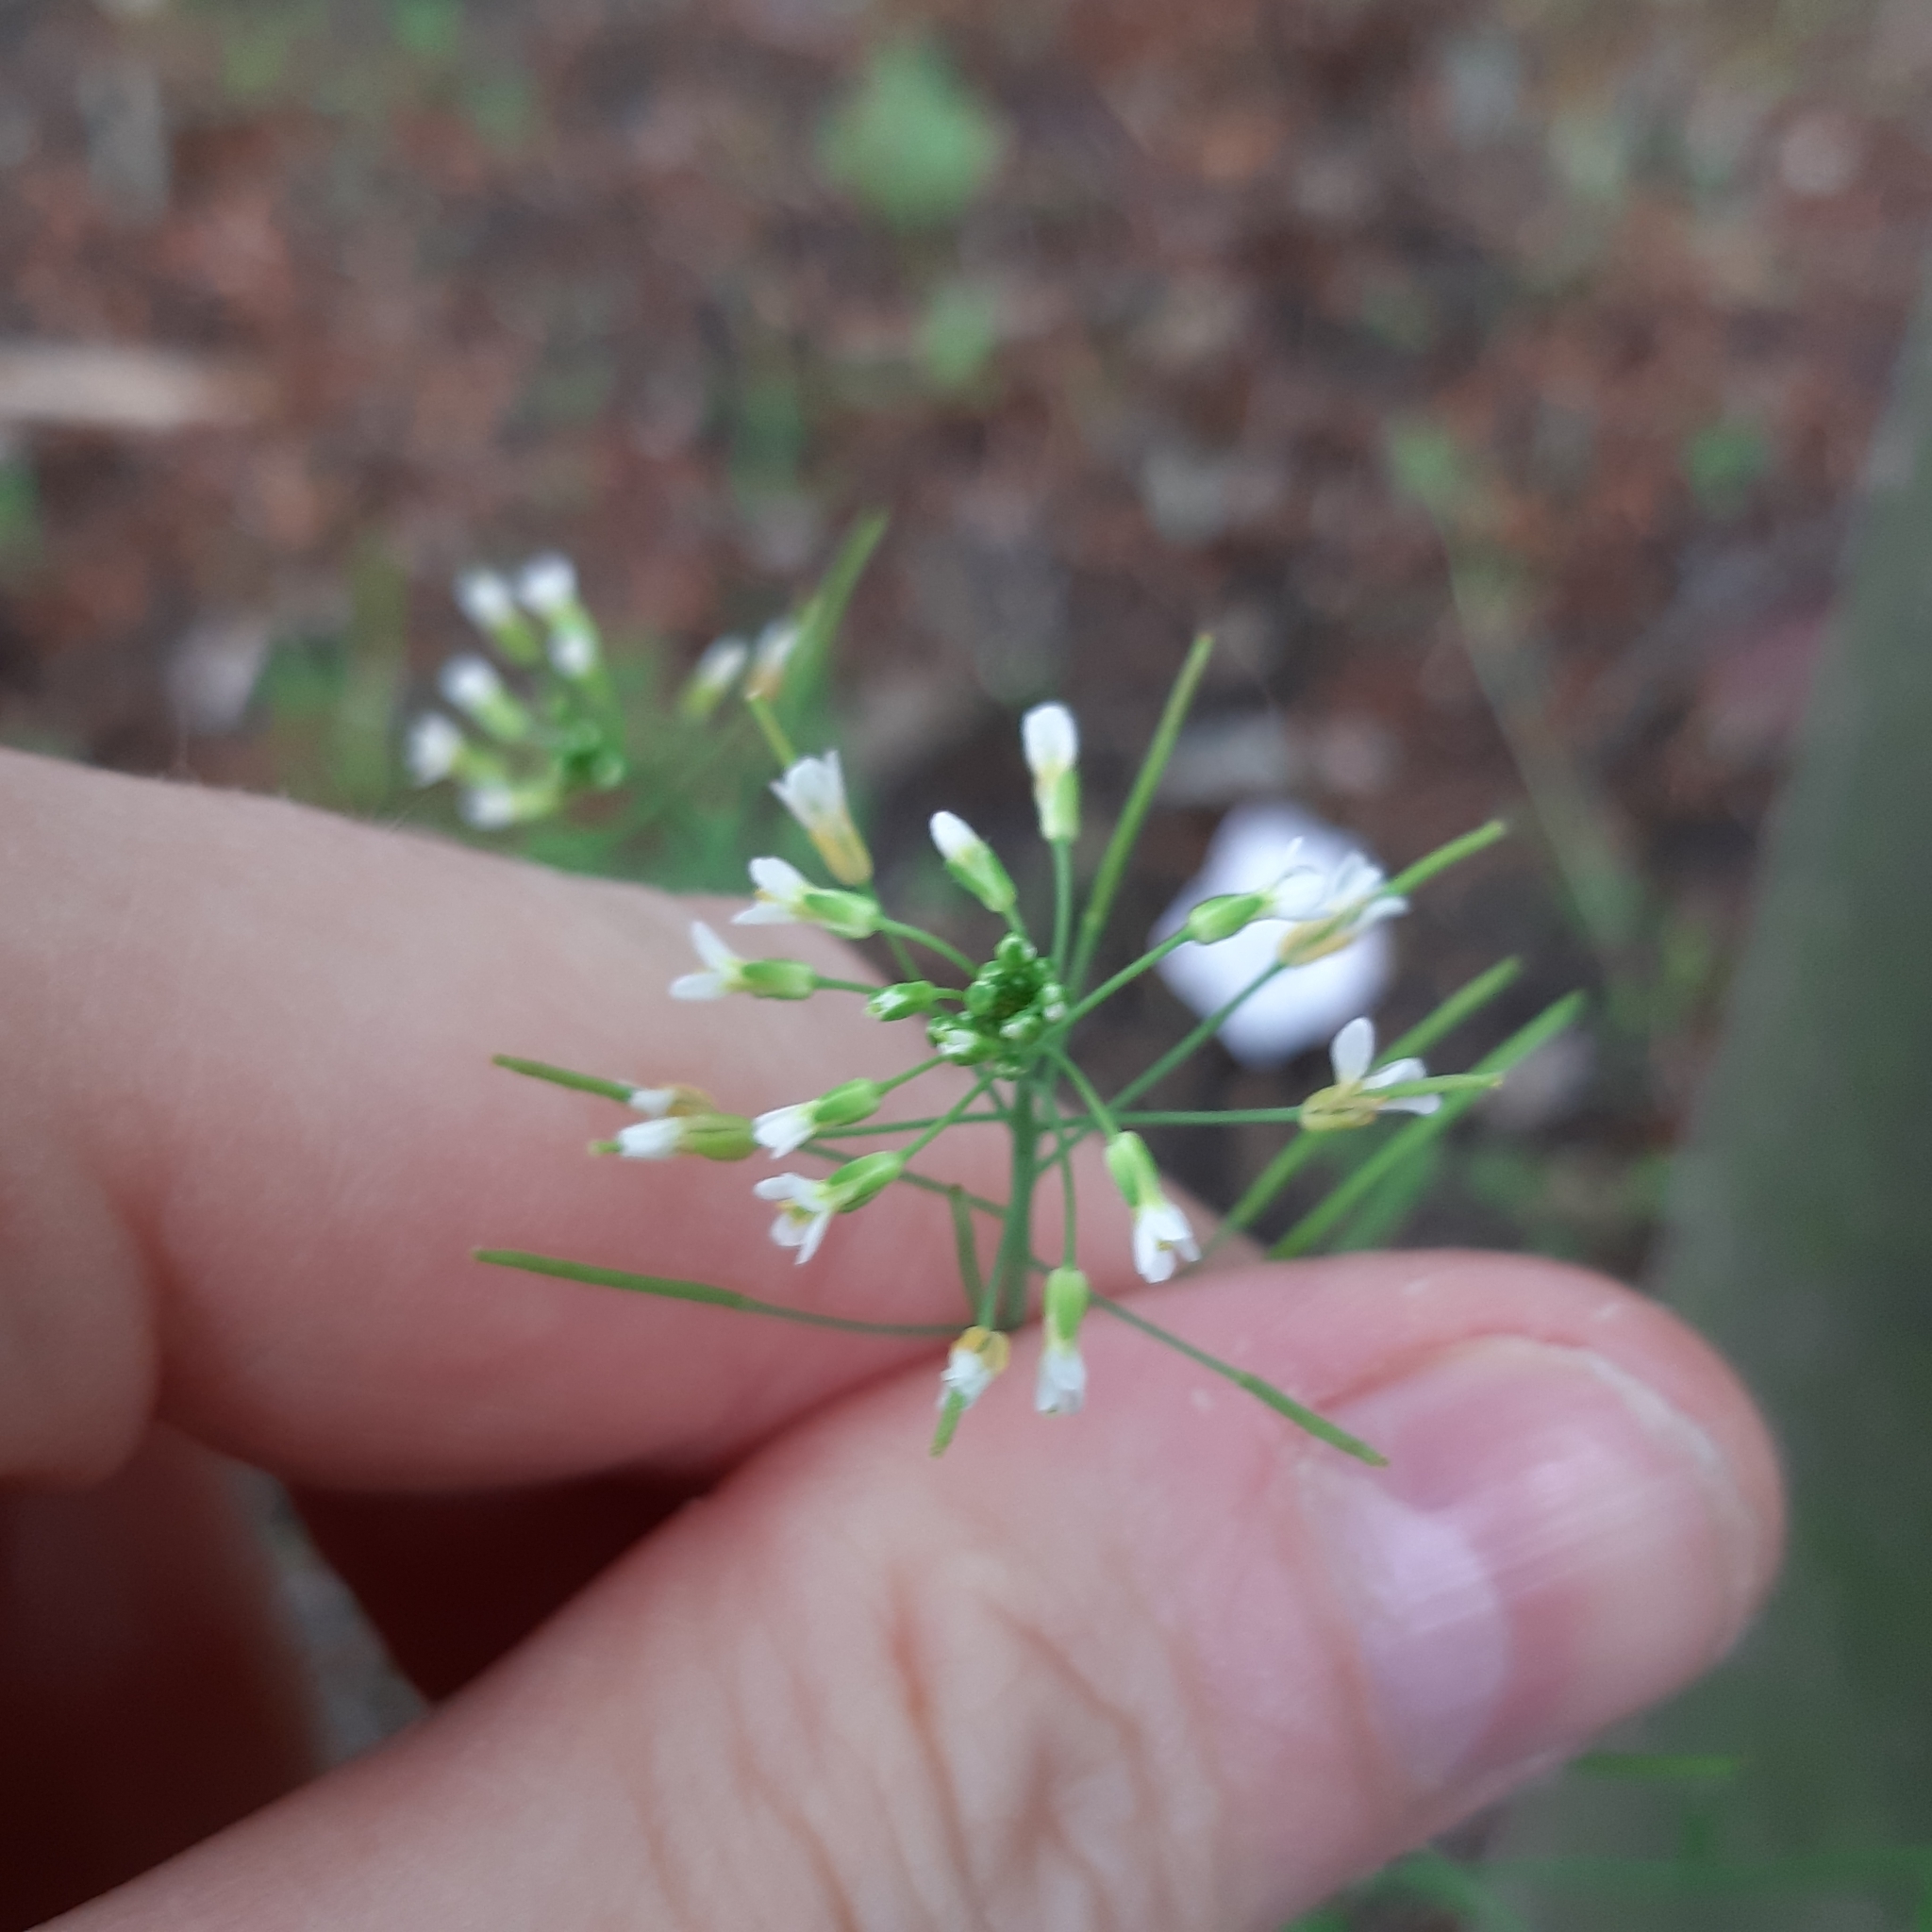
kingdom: Plantae
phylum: Tracheophyta
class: Magnoliopsida
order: Brassicales
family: Brassicaceae
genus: Arabidopsis
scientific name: Arabidopsis thaliana
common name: Thale cress
